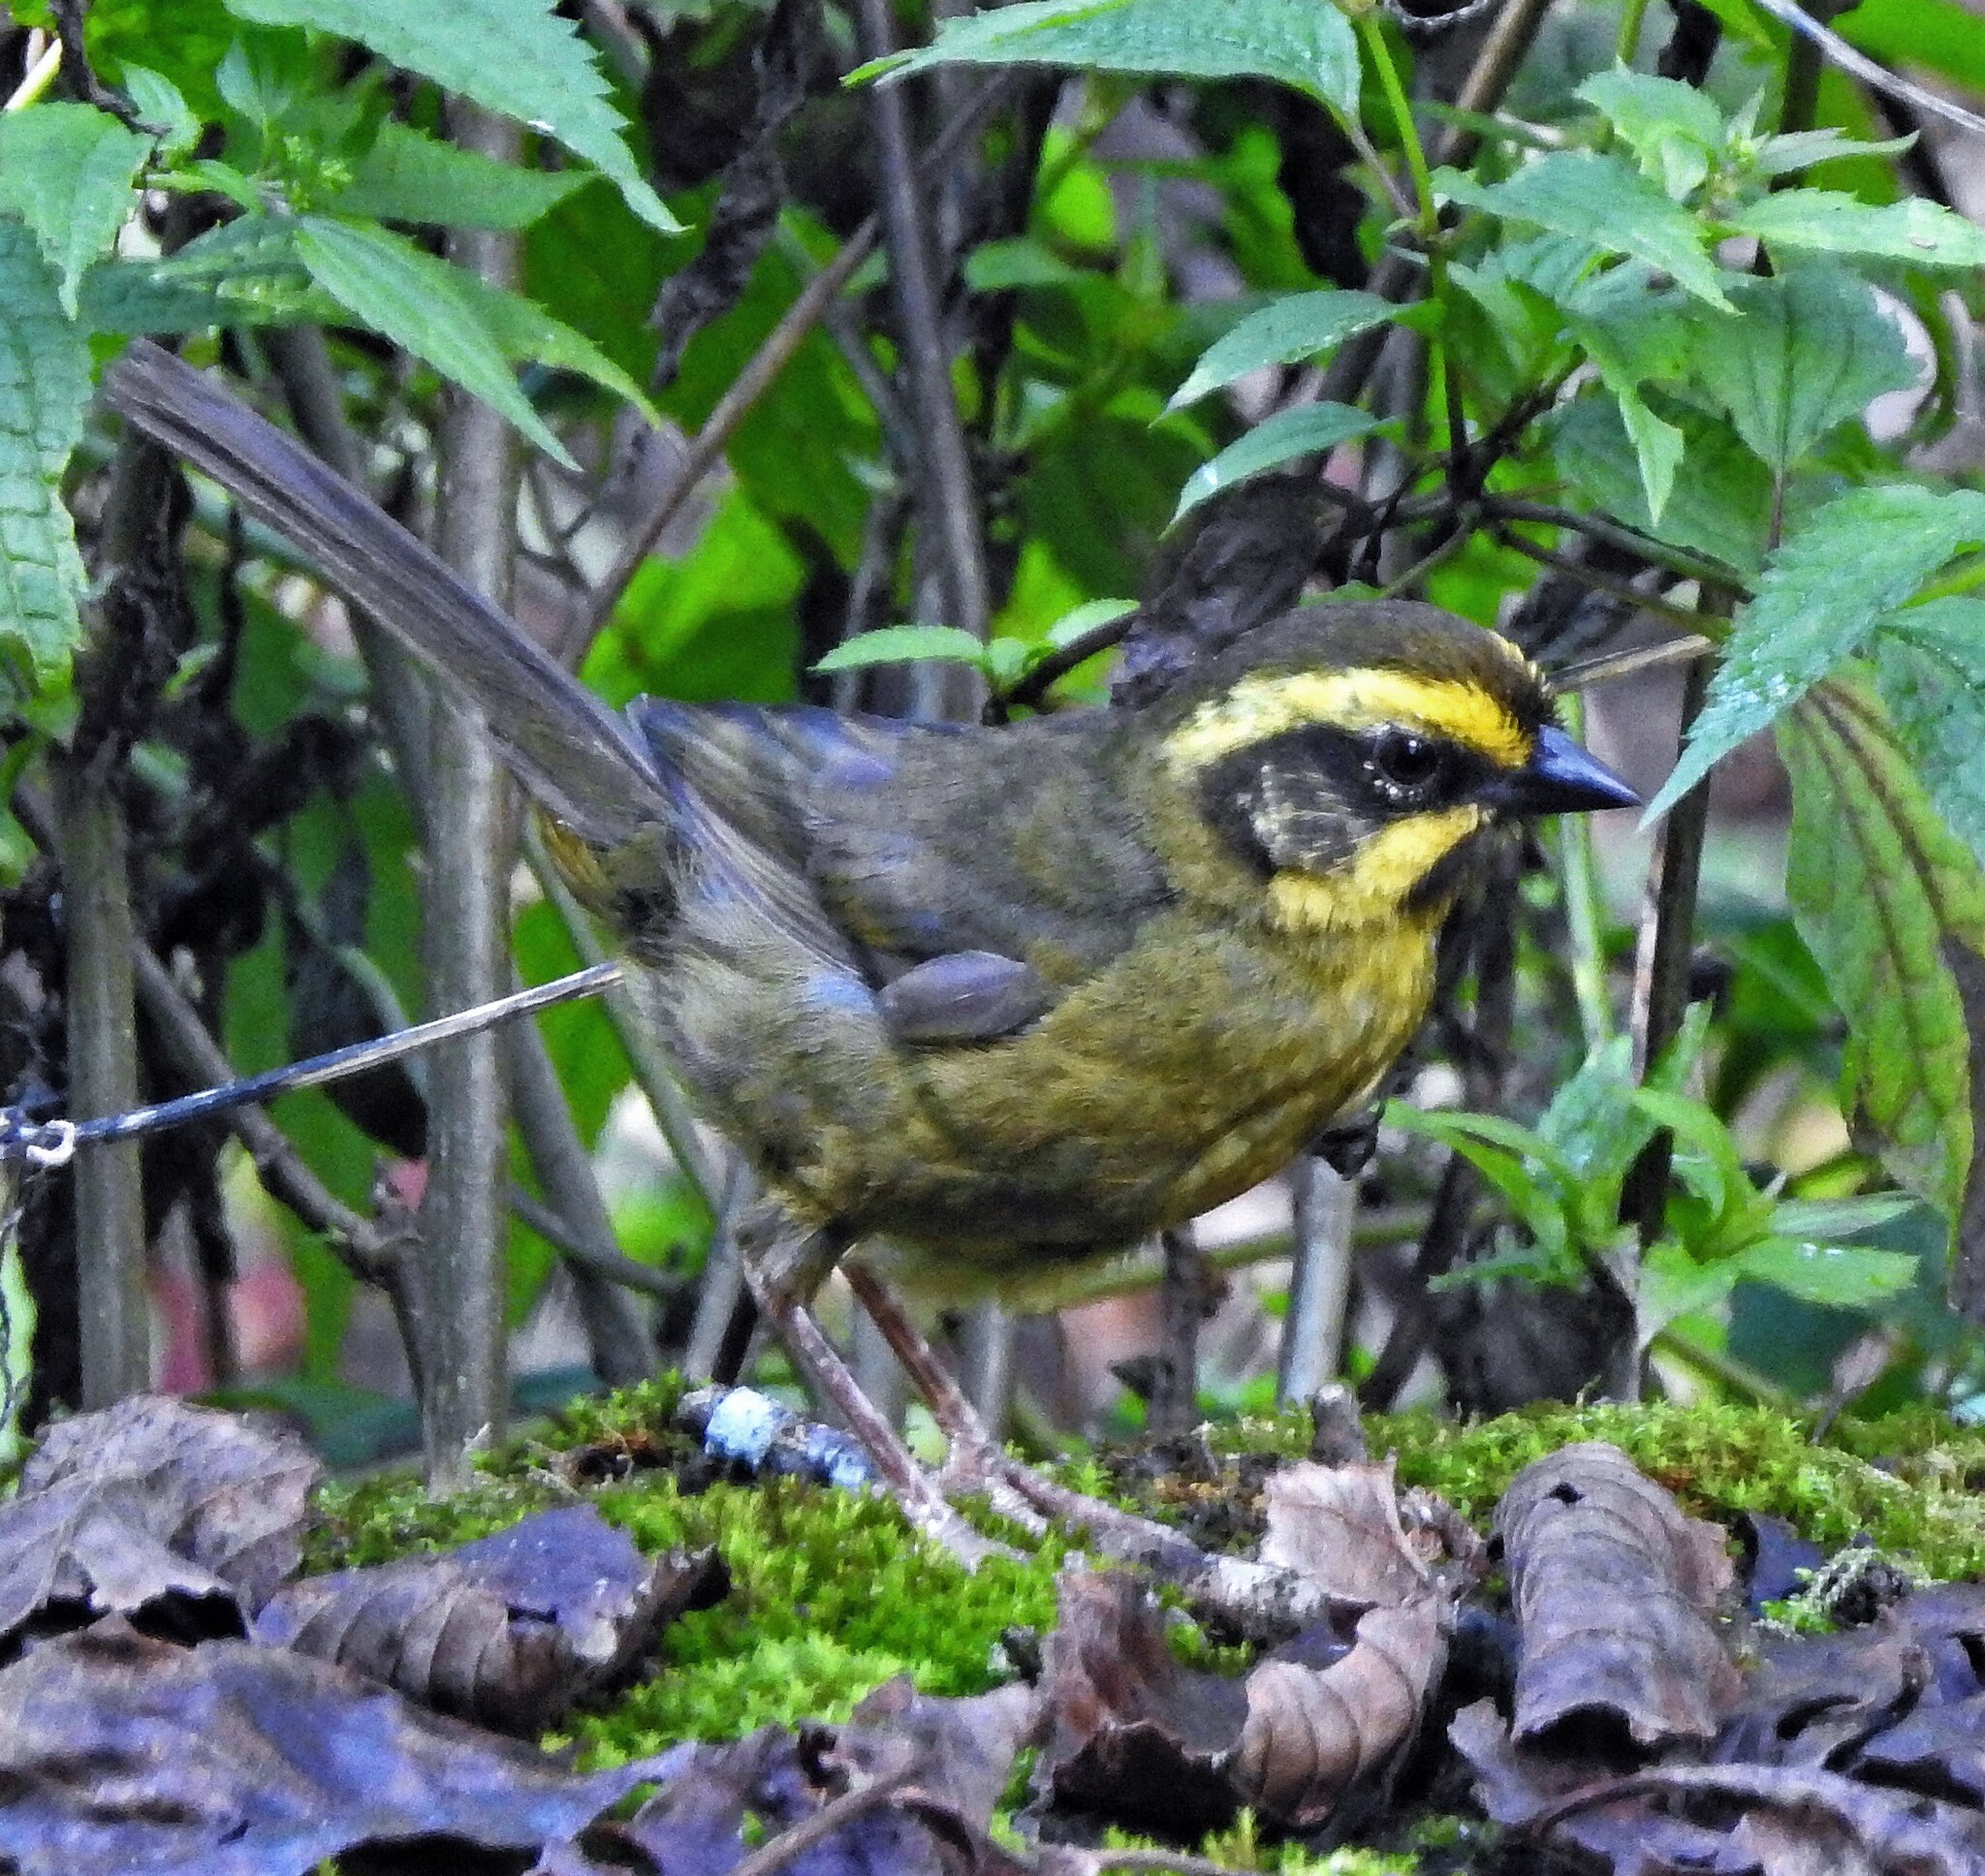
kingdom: Animalia
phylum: Chordata
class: Aves
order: Passeriformes
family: Passerellidae
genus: Atlapetes
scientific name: Atlapetes citrinellus
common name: Yellow-striped brushfinch
